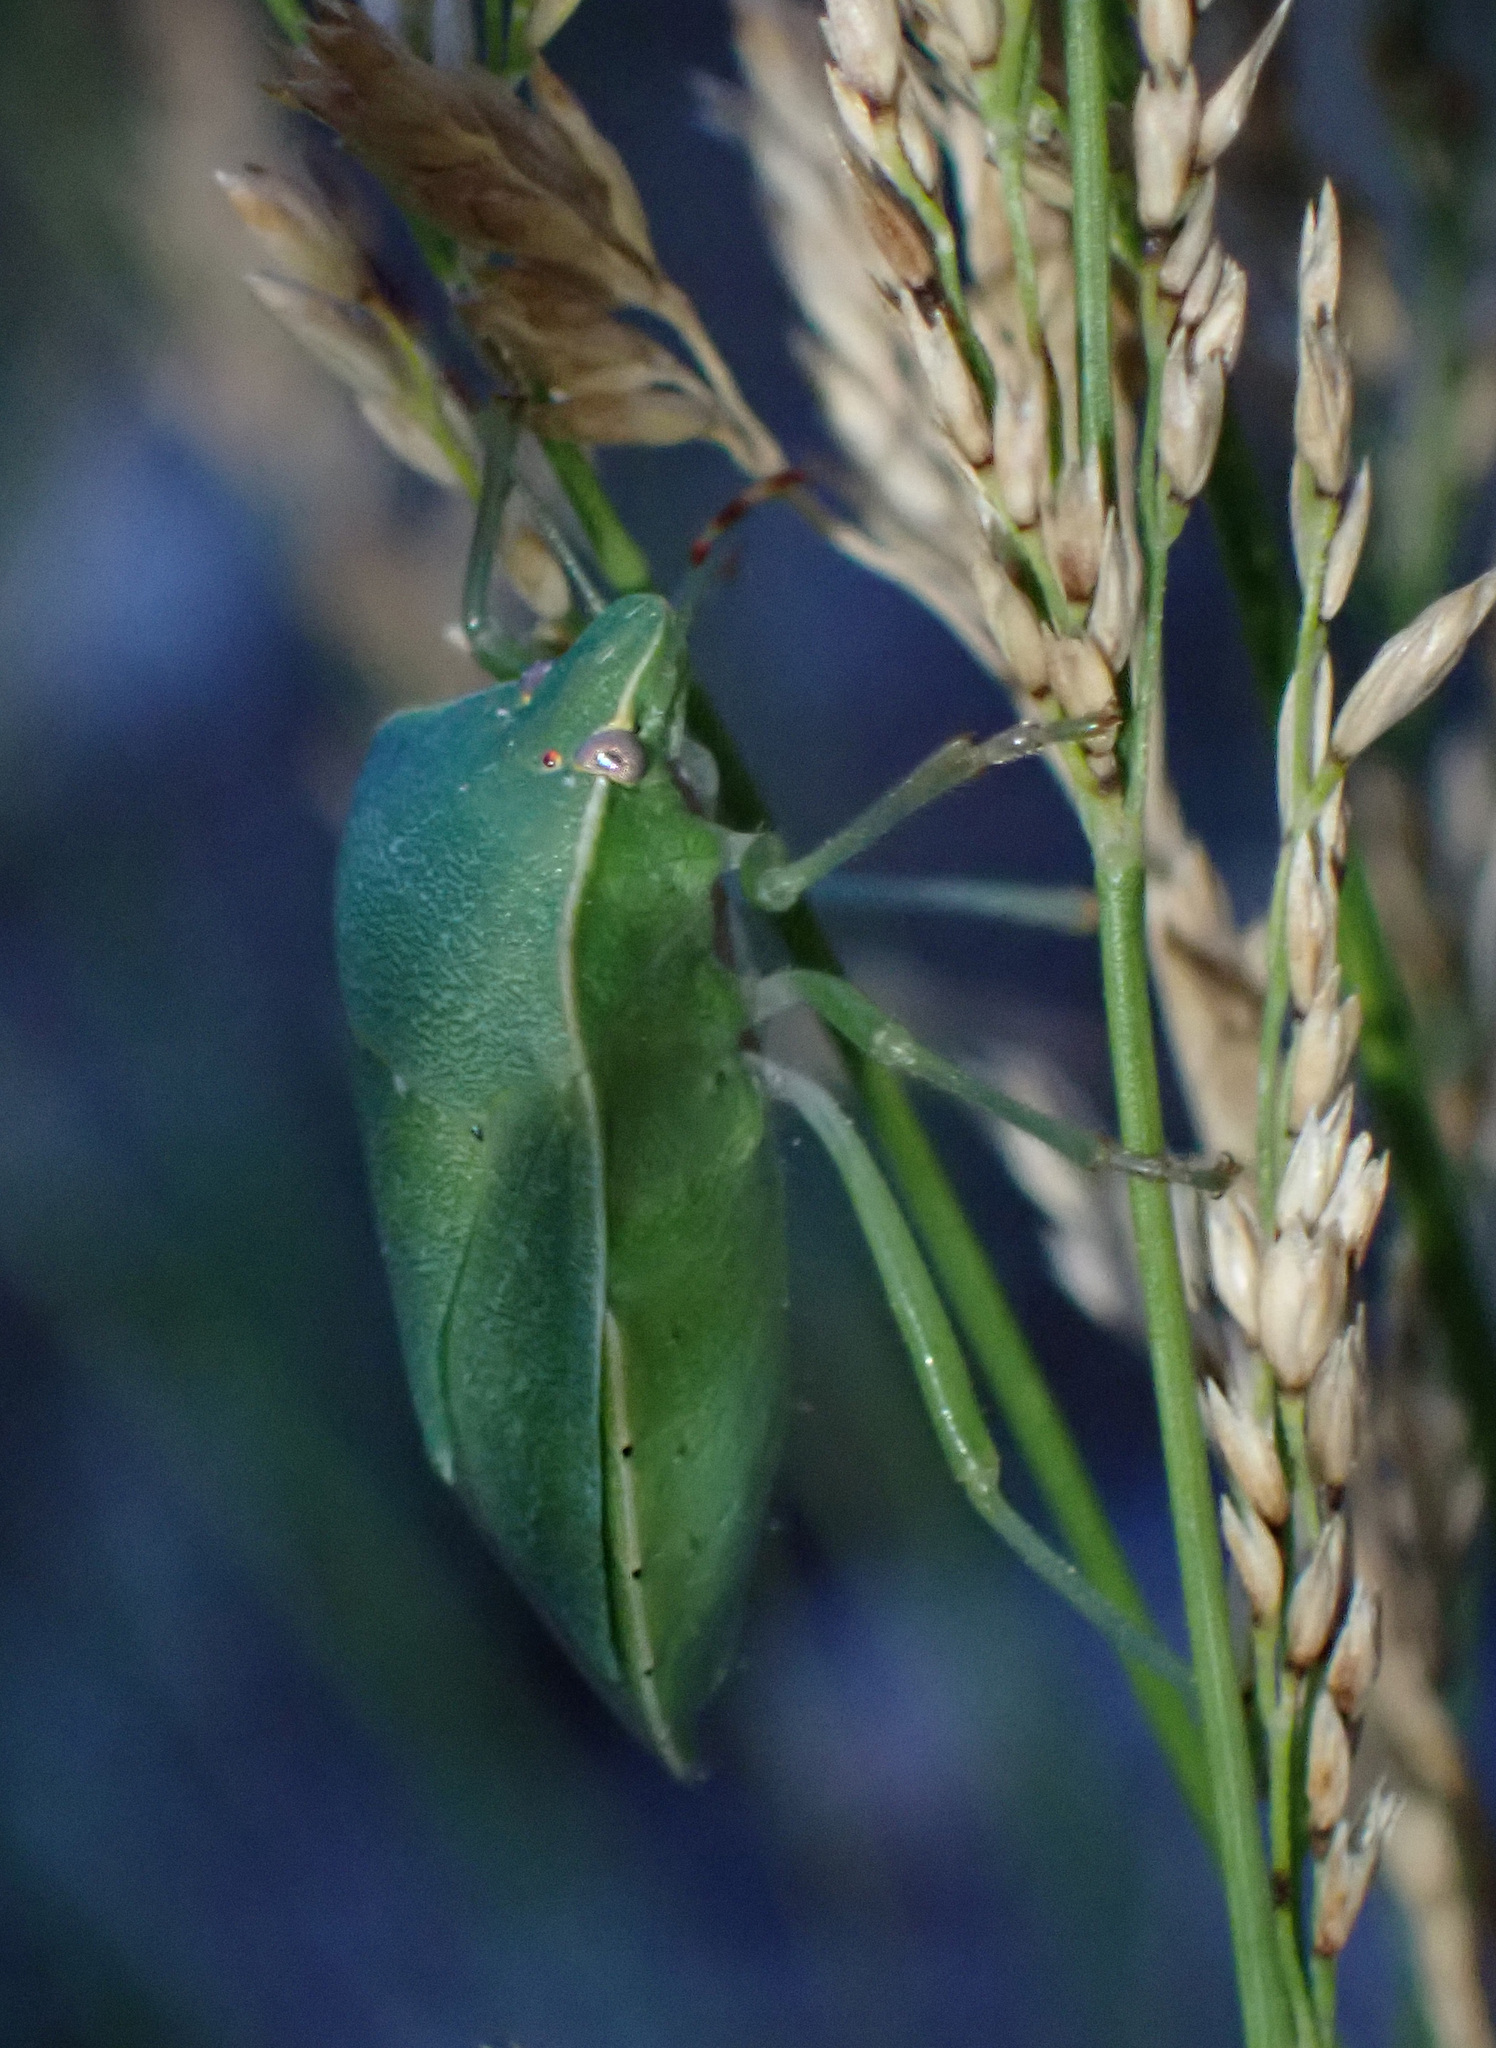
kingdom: Animalia
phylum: Arthropoda
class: Insecta
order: Hemiptera
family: Pentatomidae
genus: Nezara
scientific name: Nezara viridula
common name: Southern green stink bug
